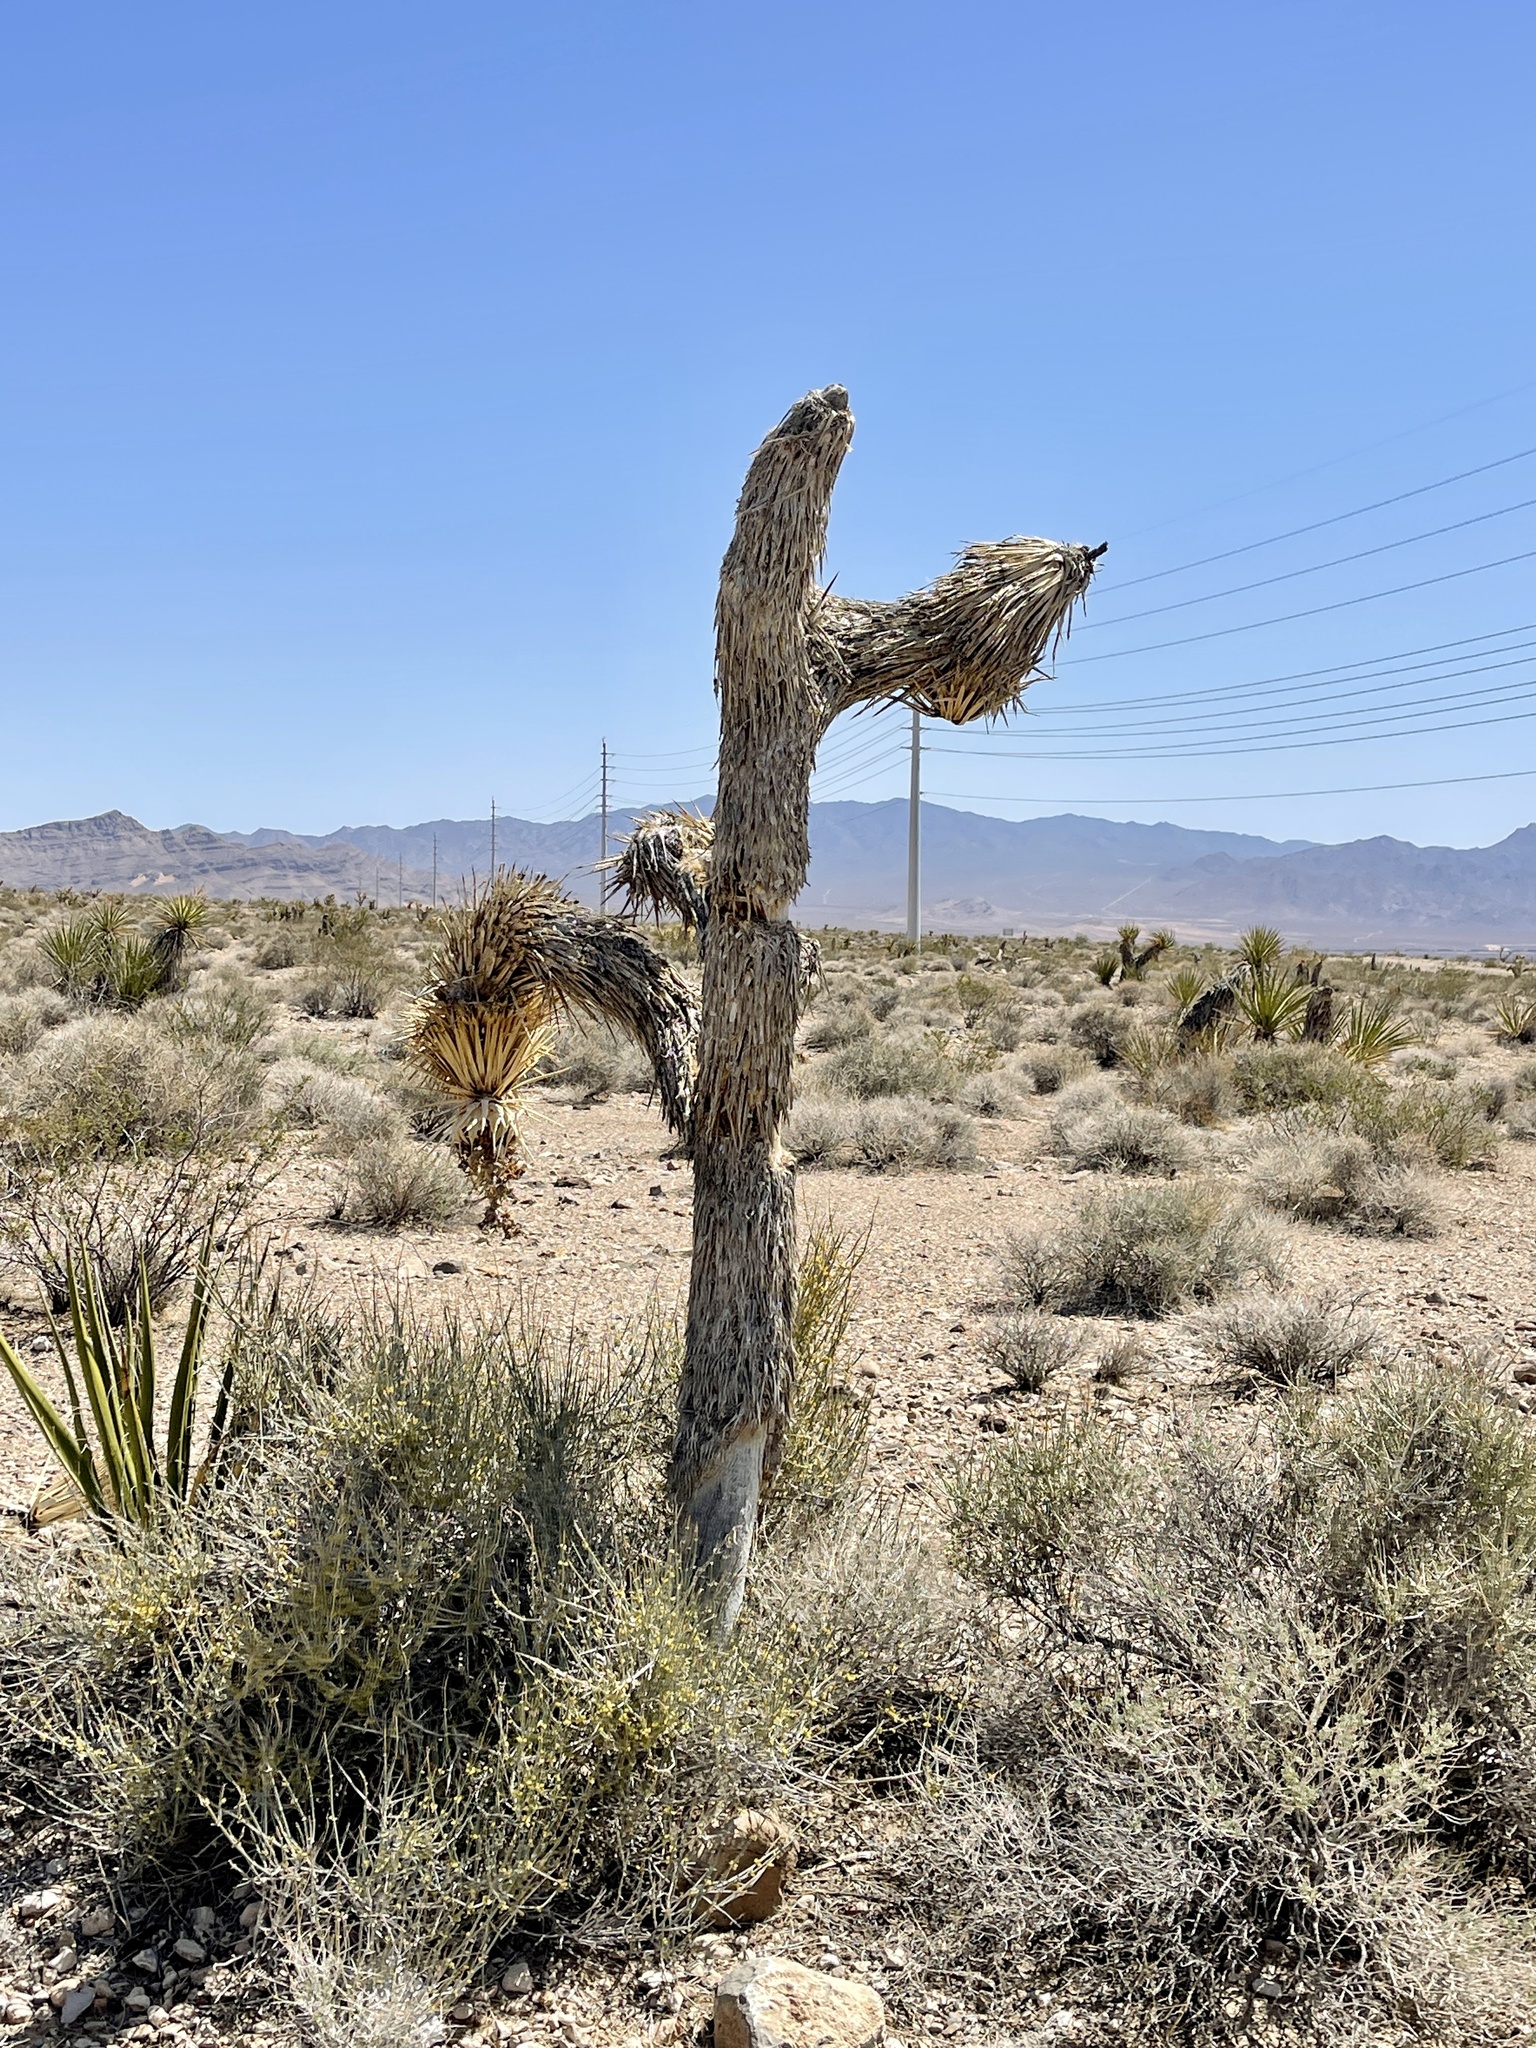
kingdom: Plantae
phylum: Tracheophyta
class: Liliopsida
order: Asparagales
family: Asparagaceae
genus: Yucca
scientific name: Yucca brevifolia
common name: Joshua tree
